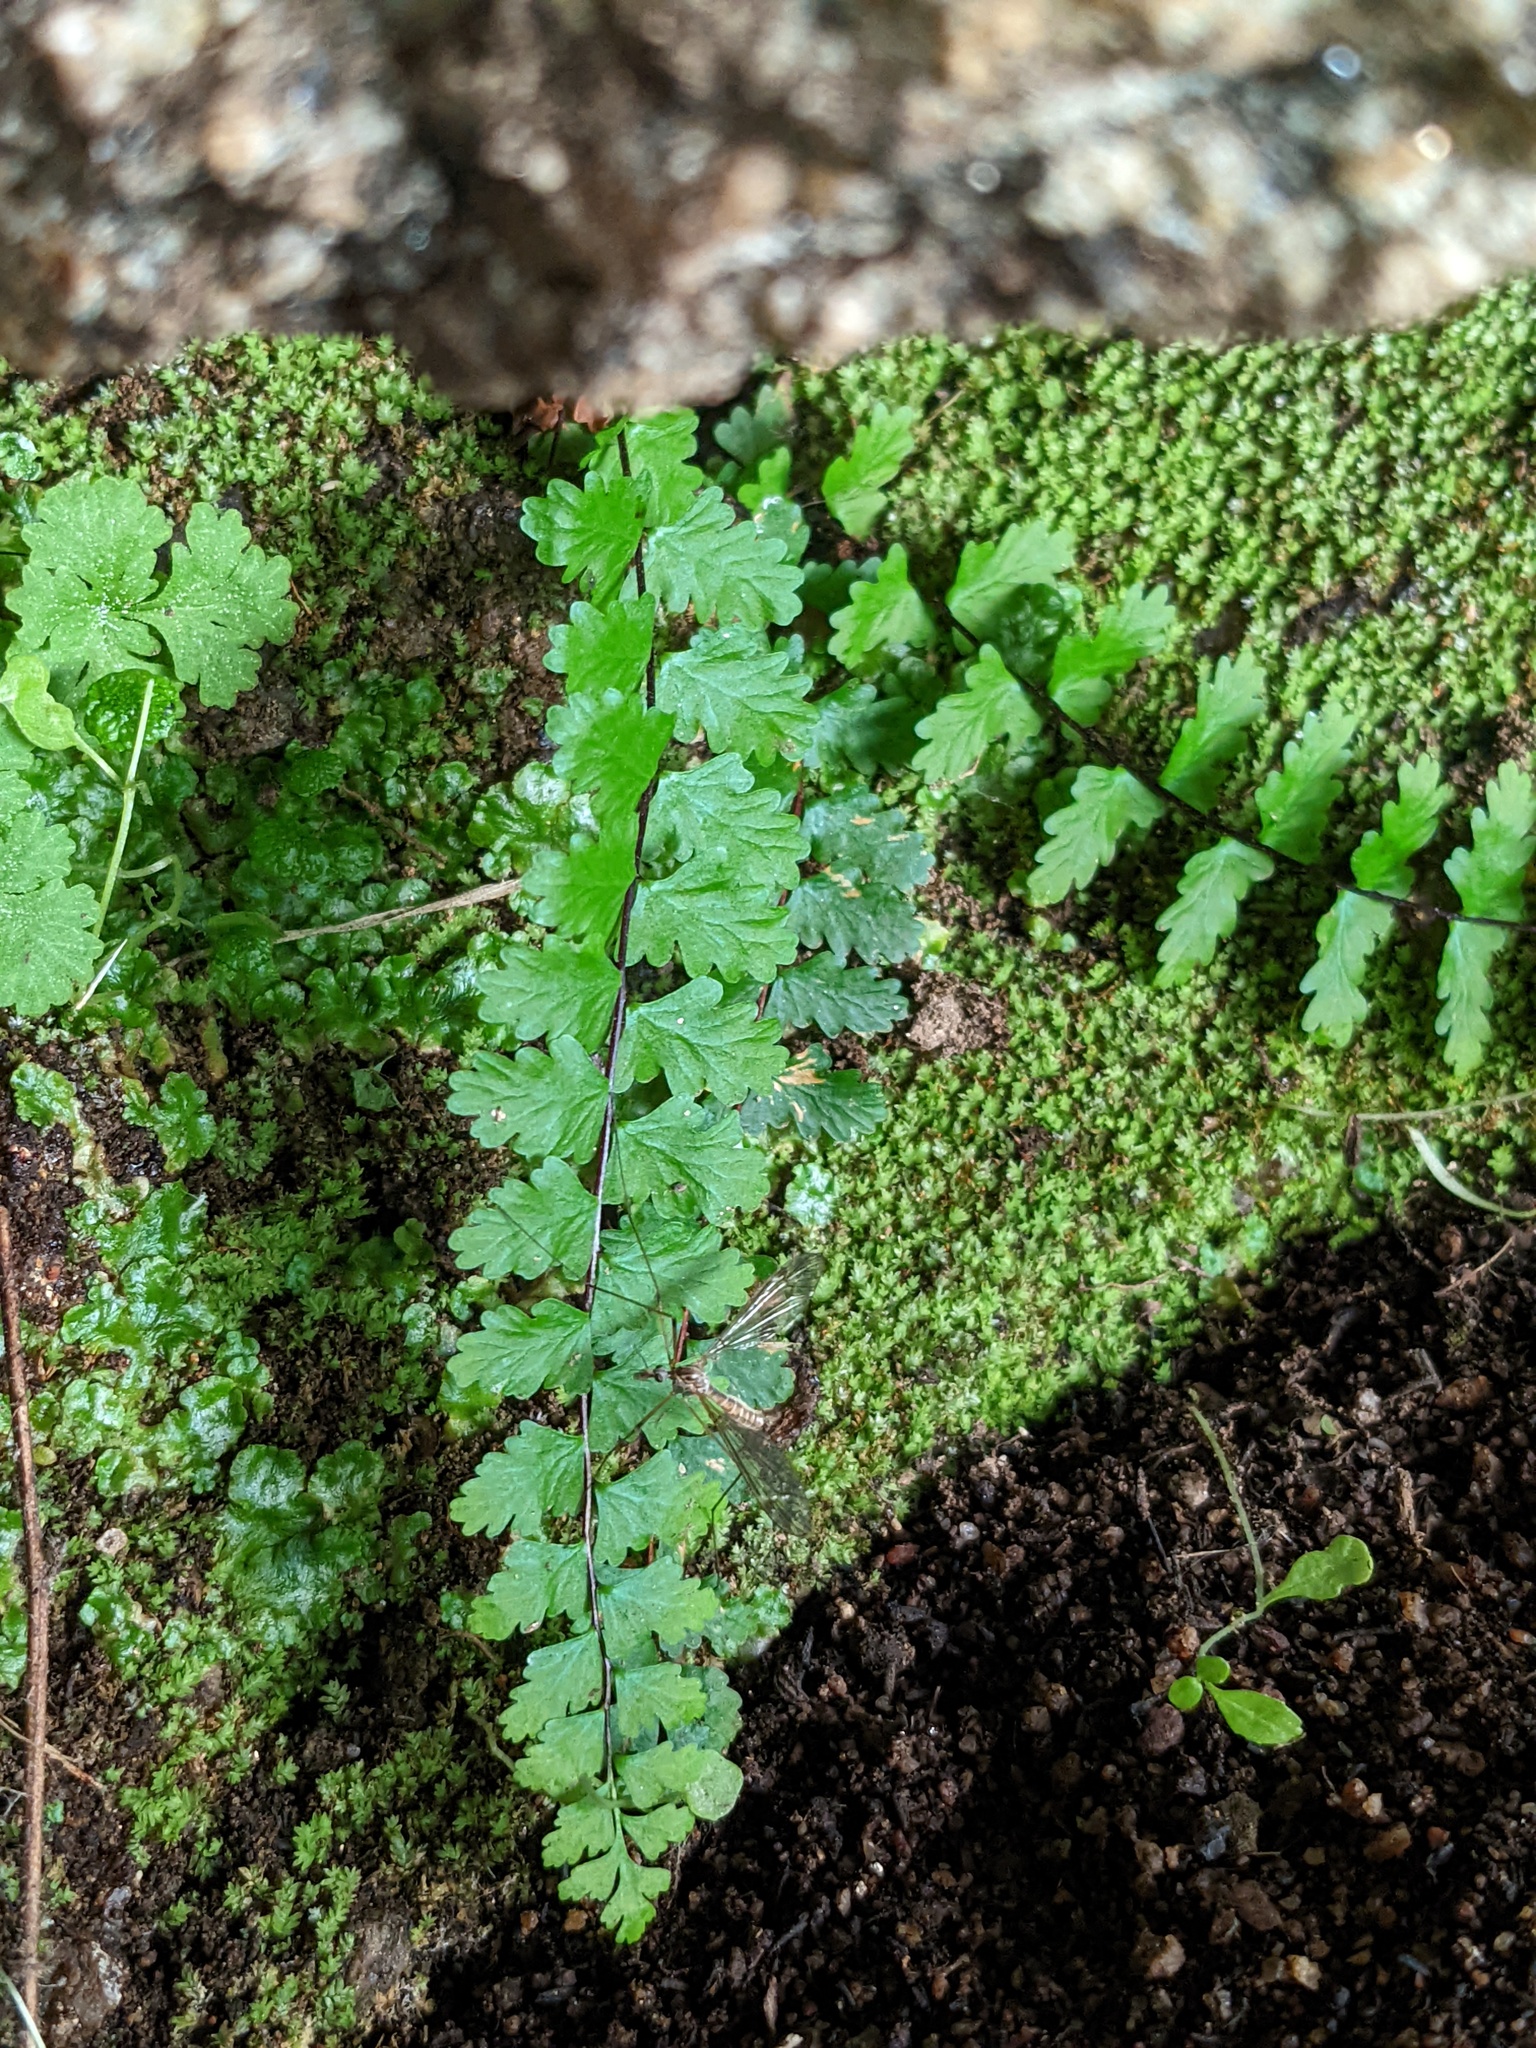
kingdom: Plantae
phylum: Tracheophyta
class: Polypodiopsida
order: Polypodiales
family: Aspleniaceae
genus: Asplenium
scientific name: Asplenium vespertinum
